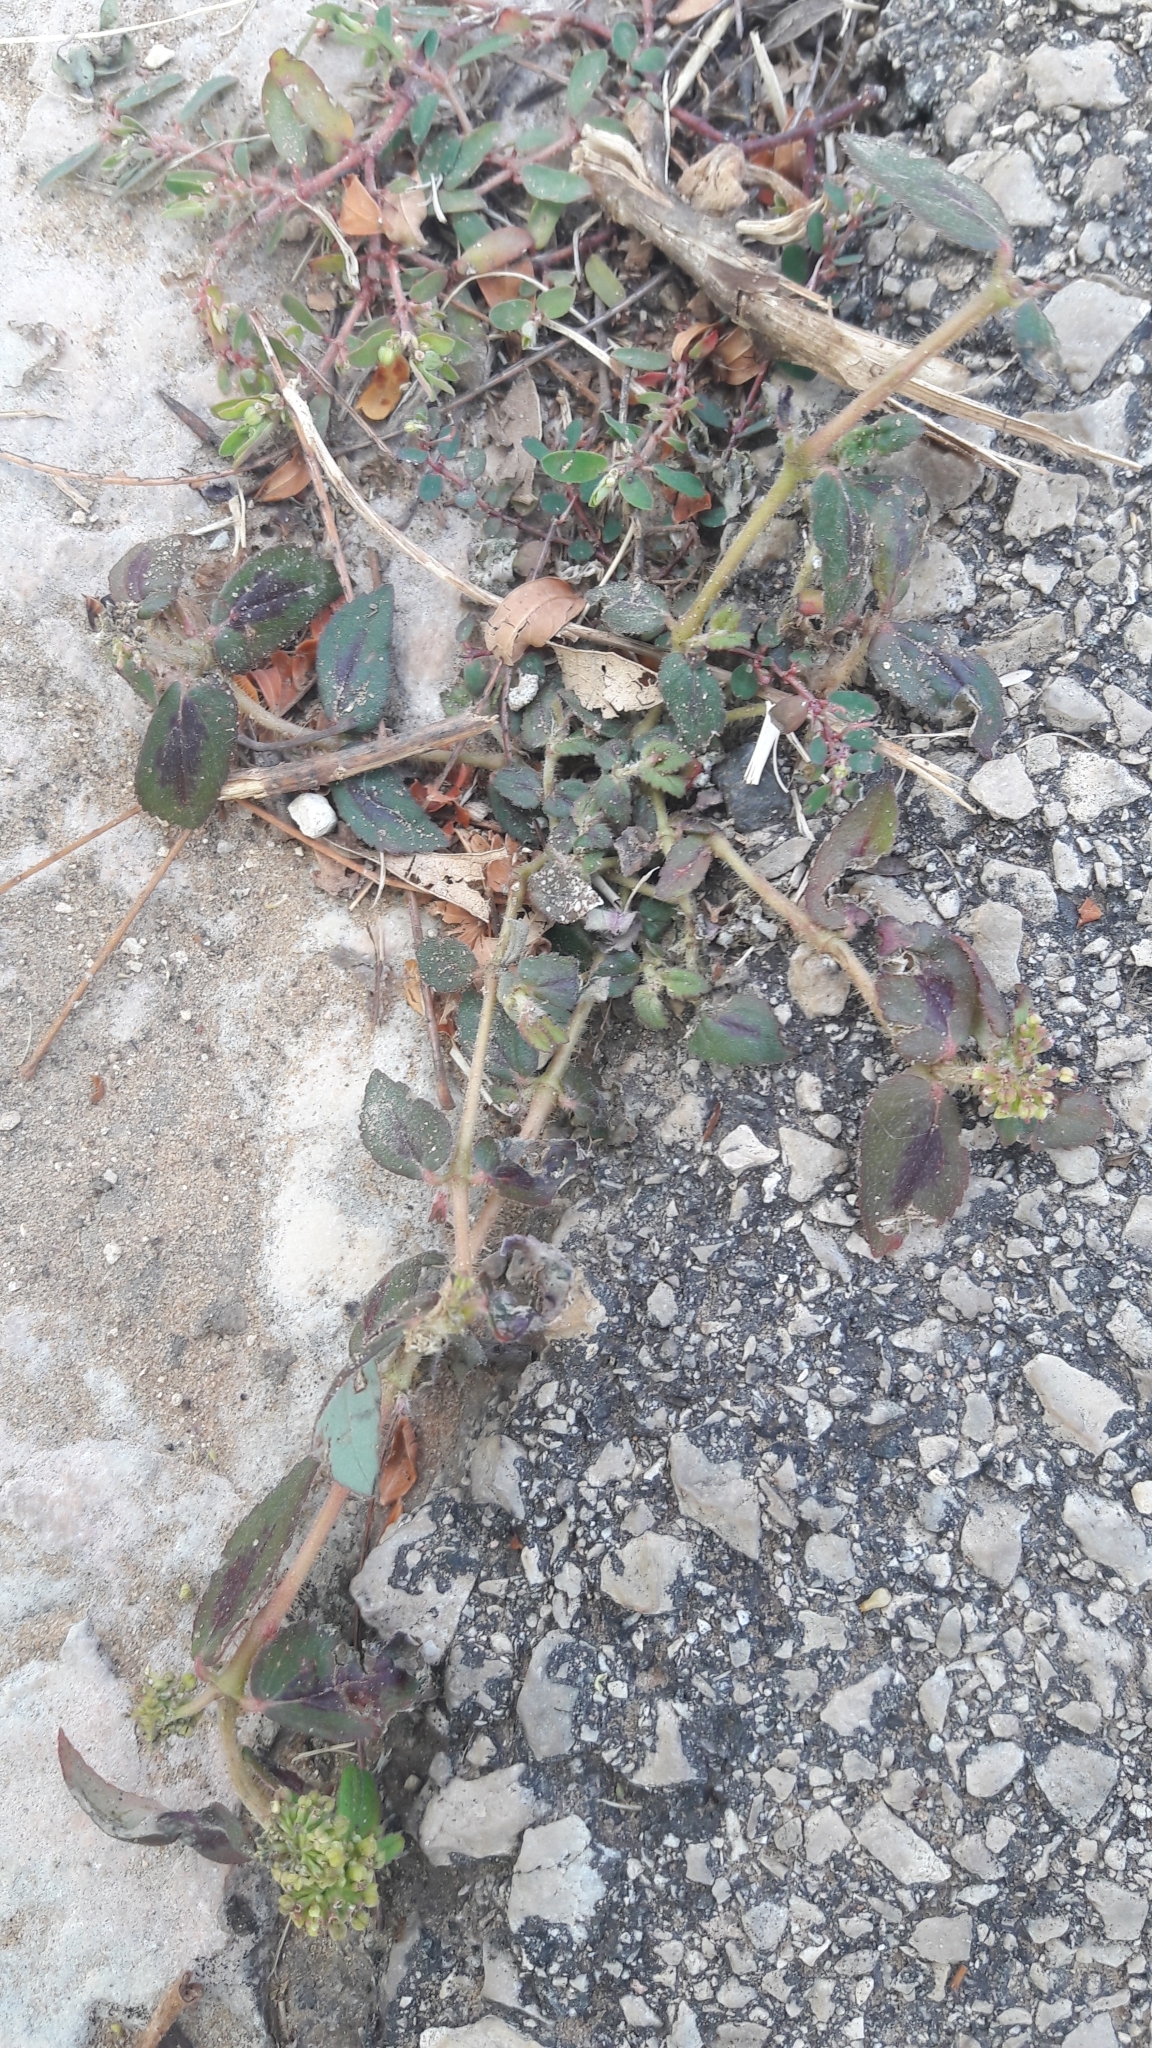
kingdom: Plantae
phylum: Tracheophyta
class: Magnoliopsida
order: Malpighiales
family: Euphorbiaceae
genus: Euphorbia
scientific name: Euphorbia hirta
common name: Pillpod sandmat
